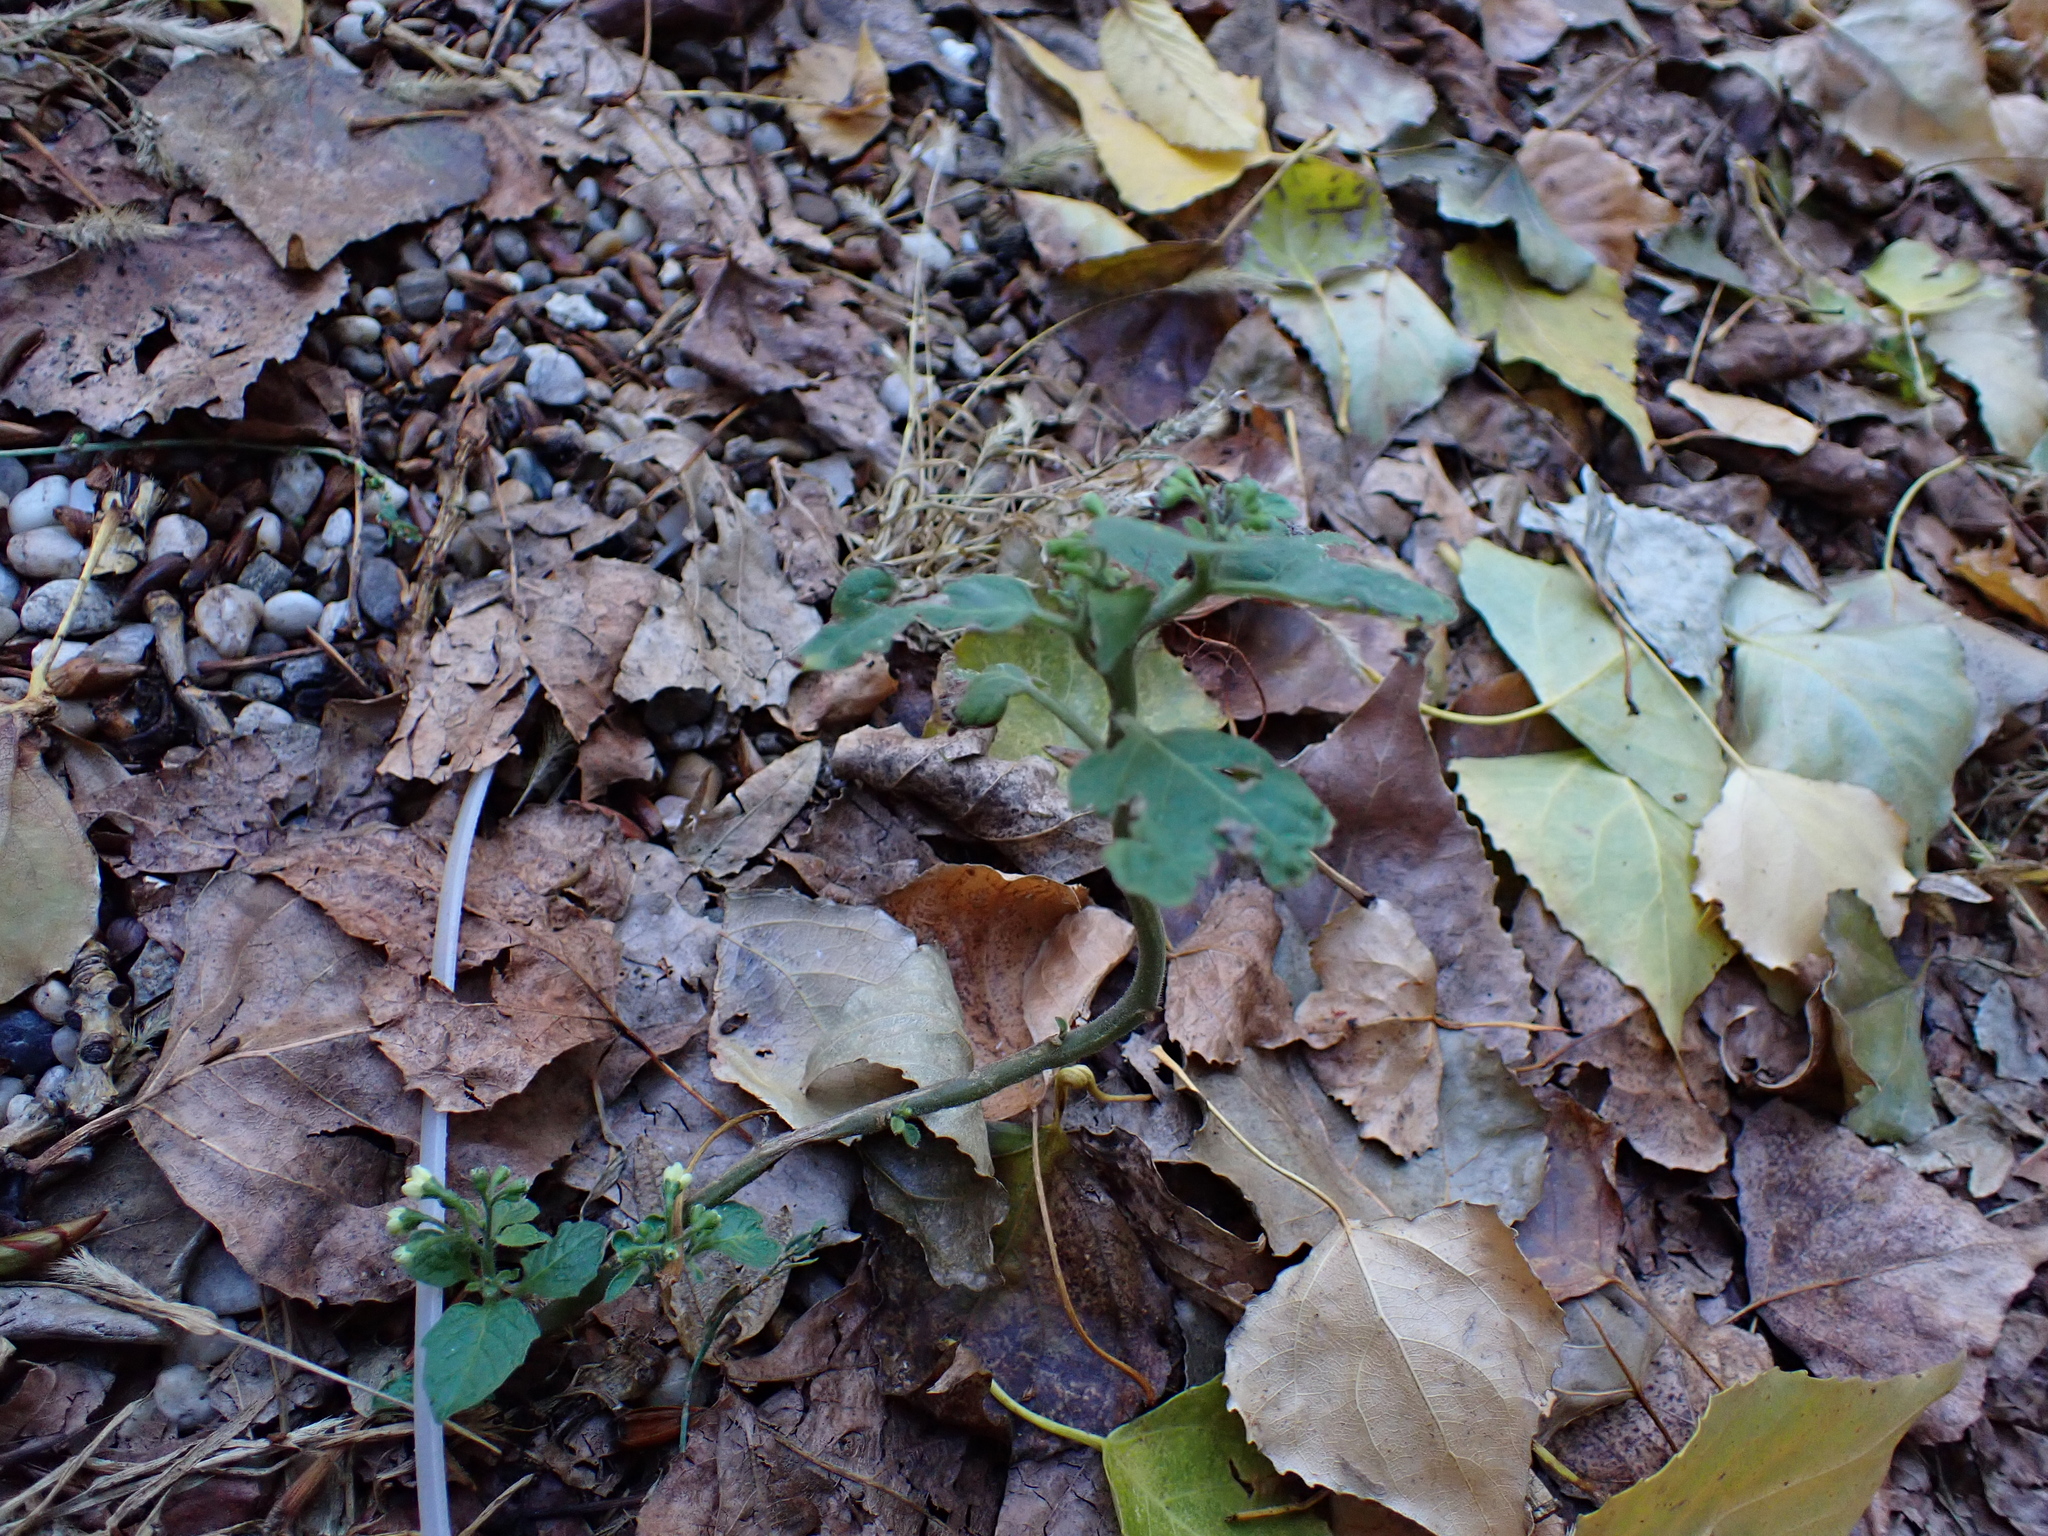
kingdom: Plantae
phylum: Tracheophyta
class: Magnoliopsida
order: Solanales
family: Solanaceae
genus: Solanum
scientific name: Solanum decipiens
